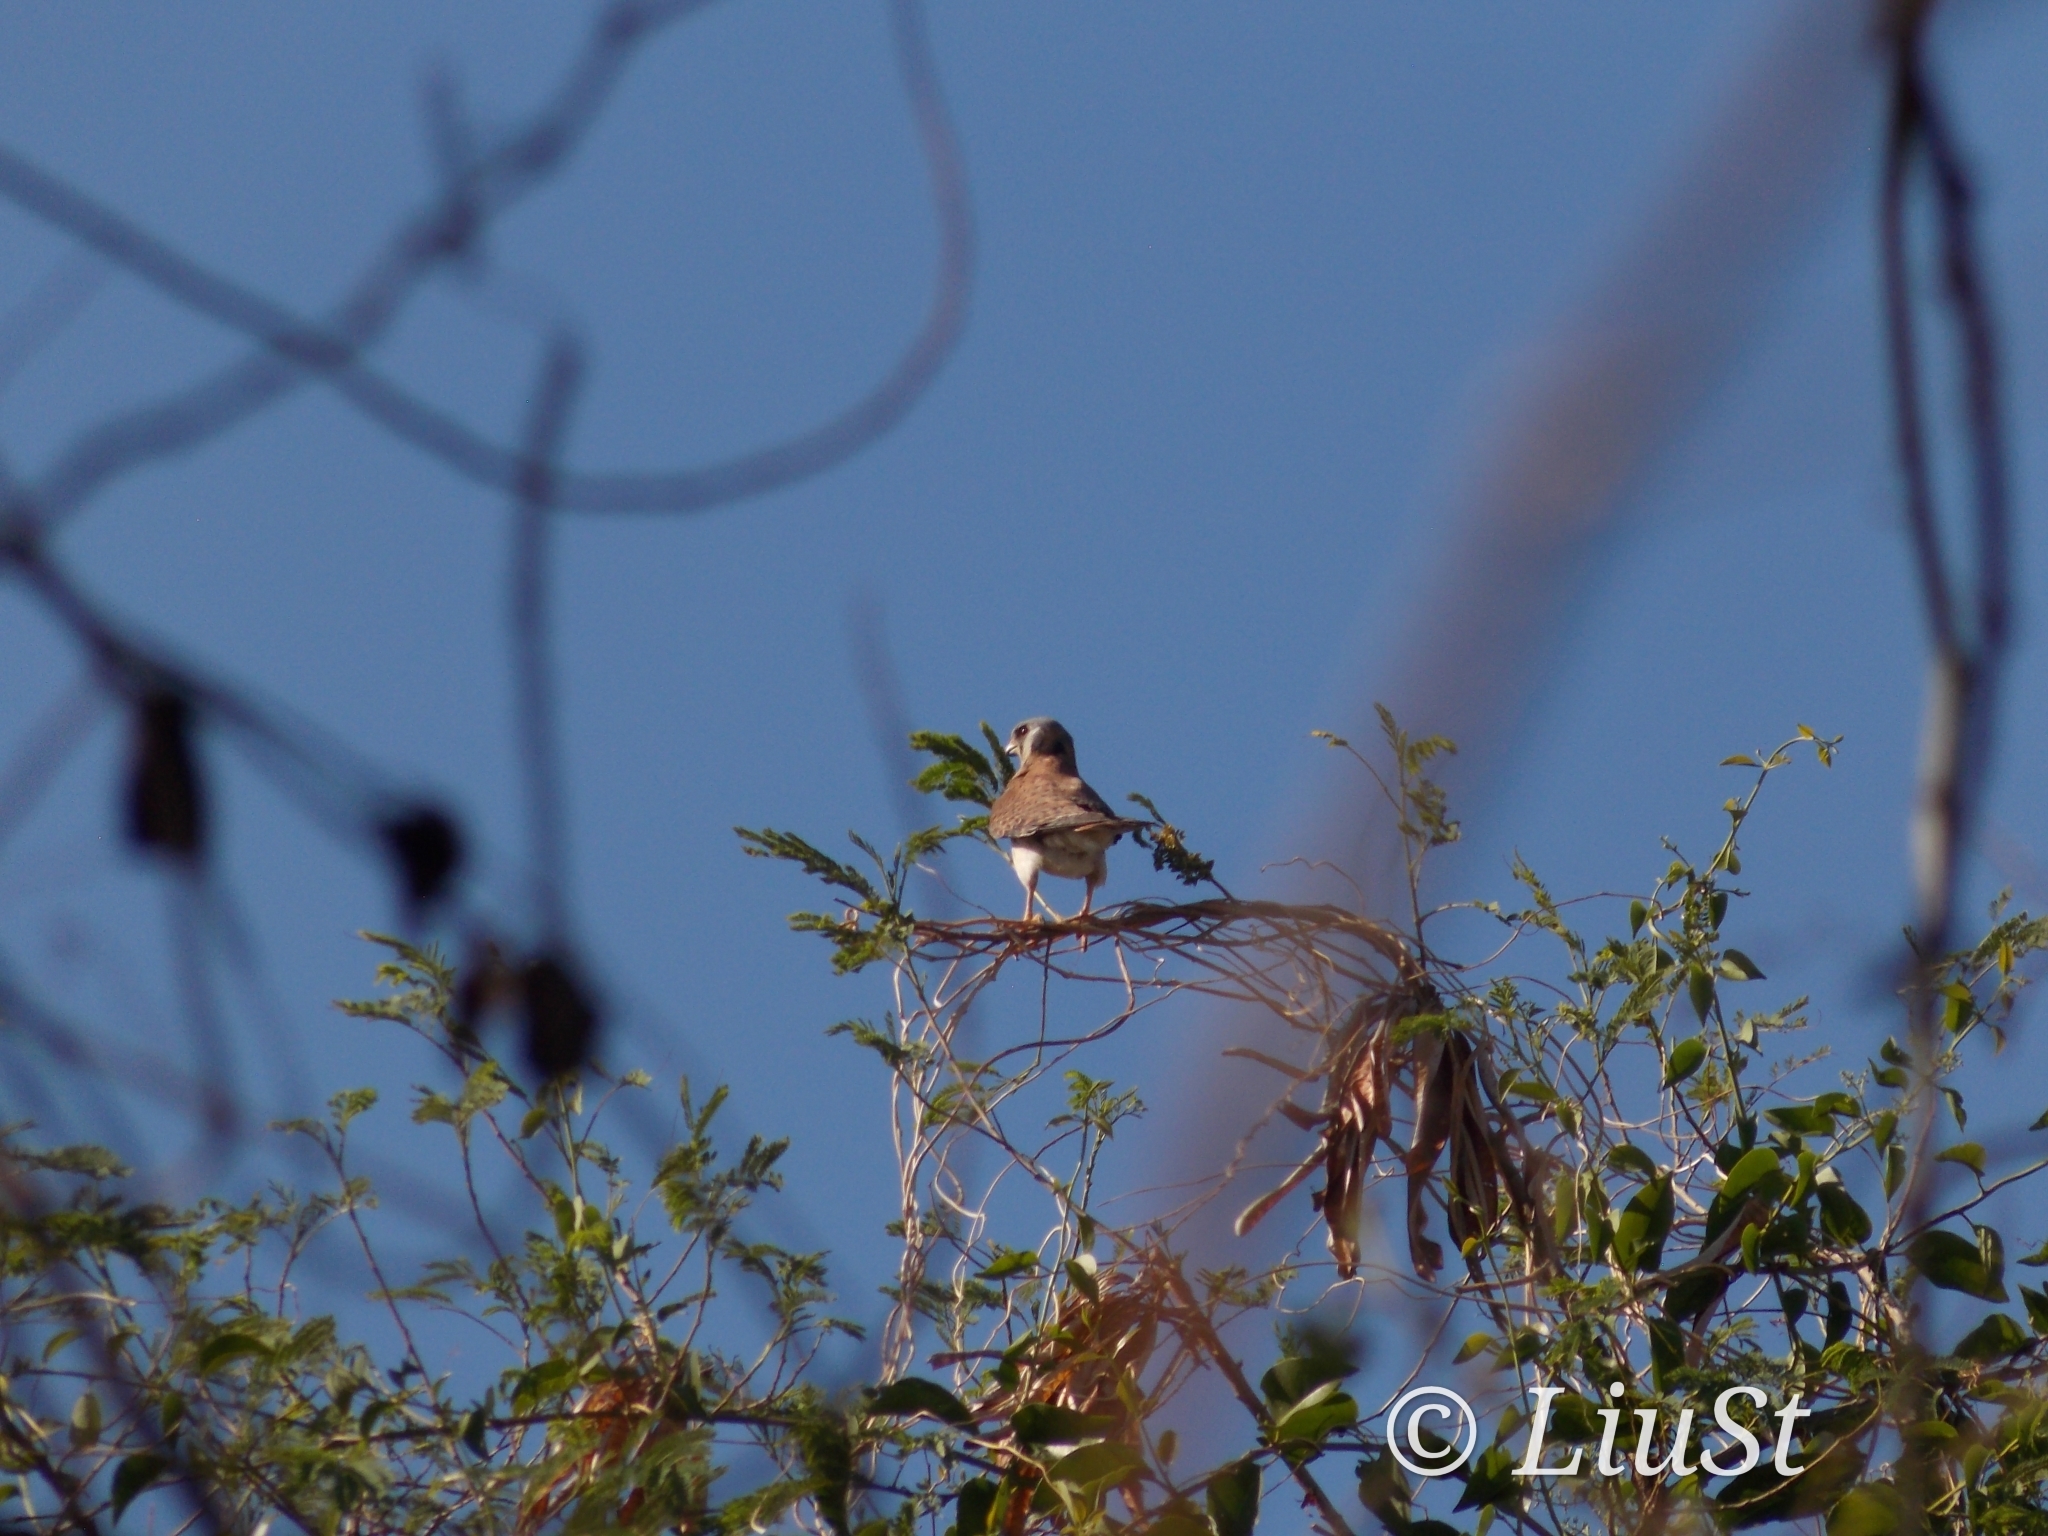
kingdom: Animalia
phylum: Chordata
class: Aves
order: Falconiformes
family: Falconidae
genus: Falco
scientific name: Falco sparverius
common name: American kestrel
